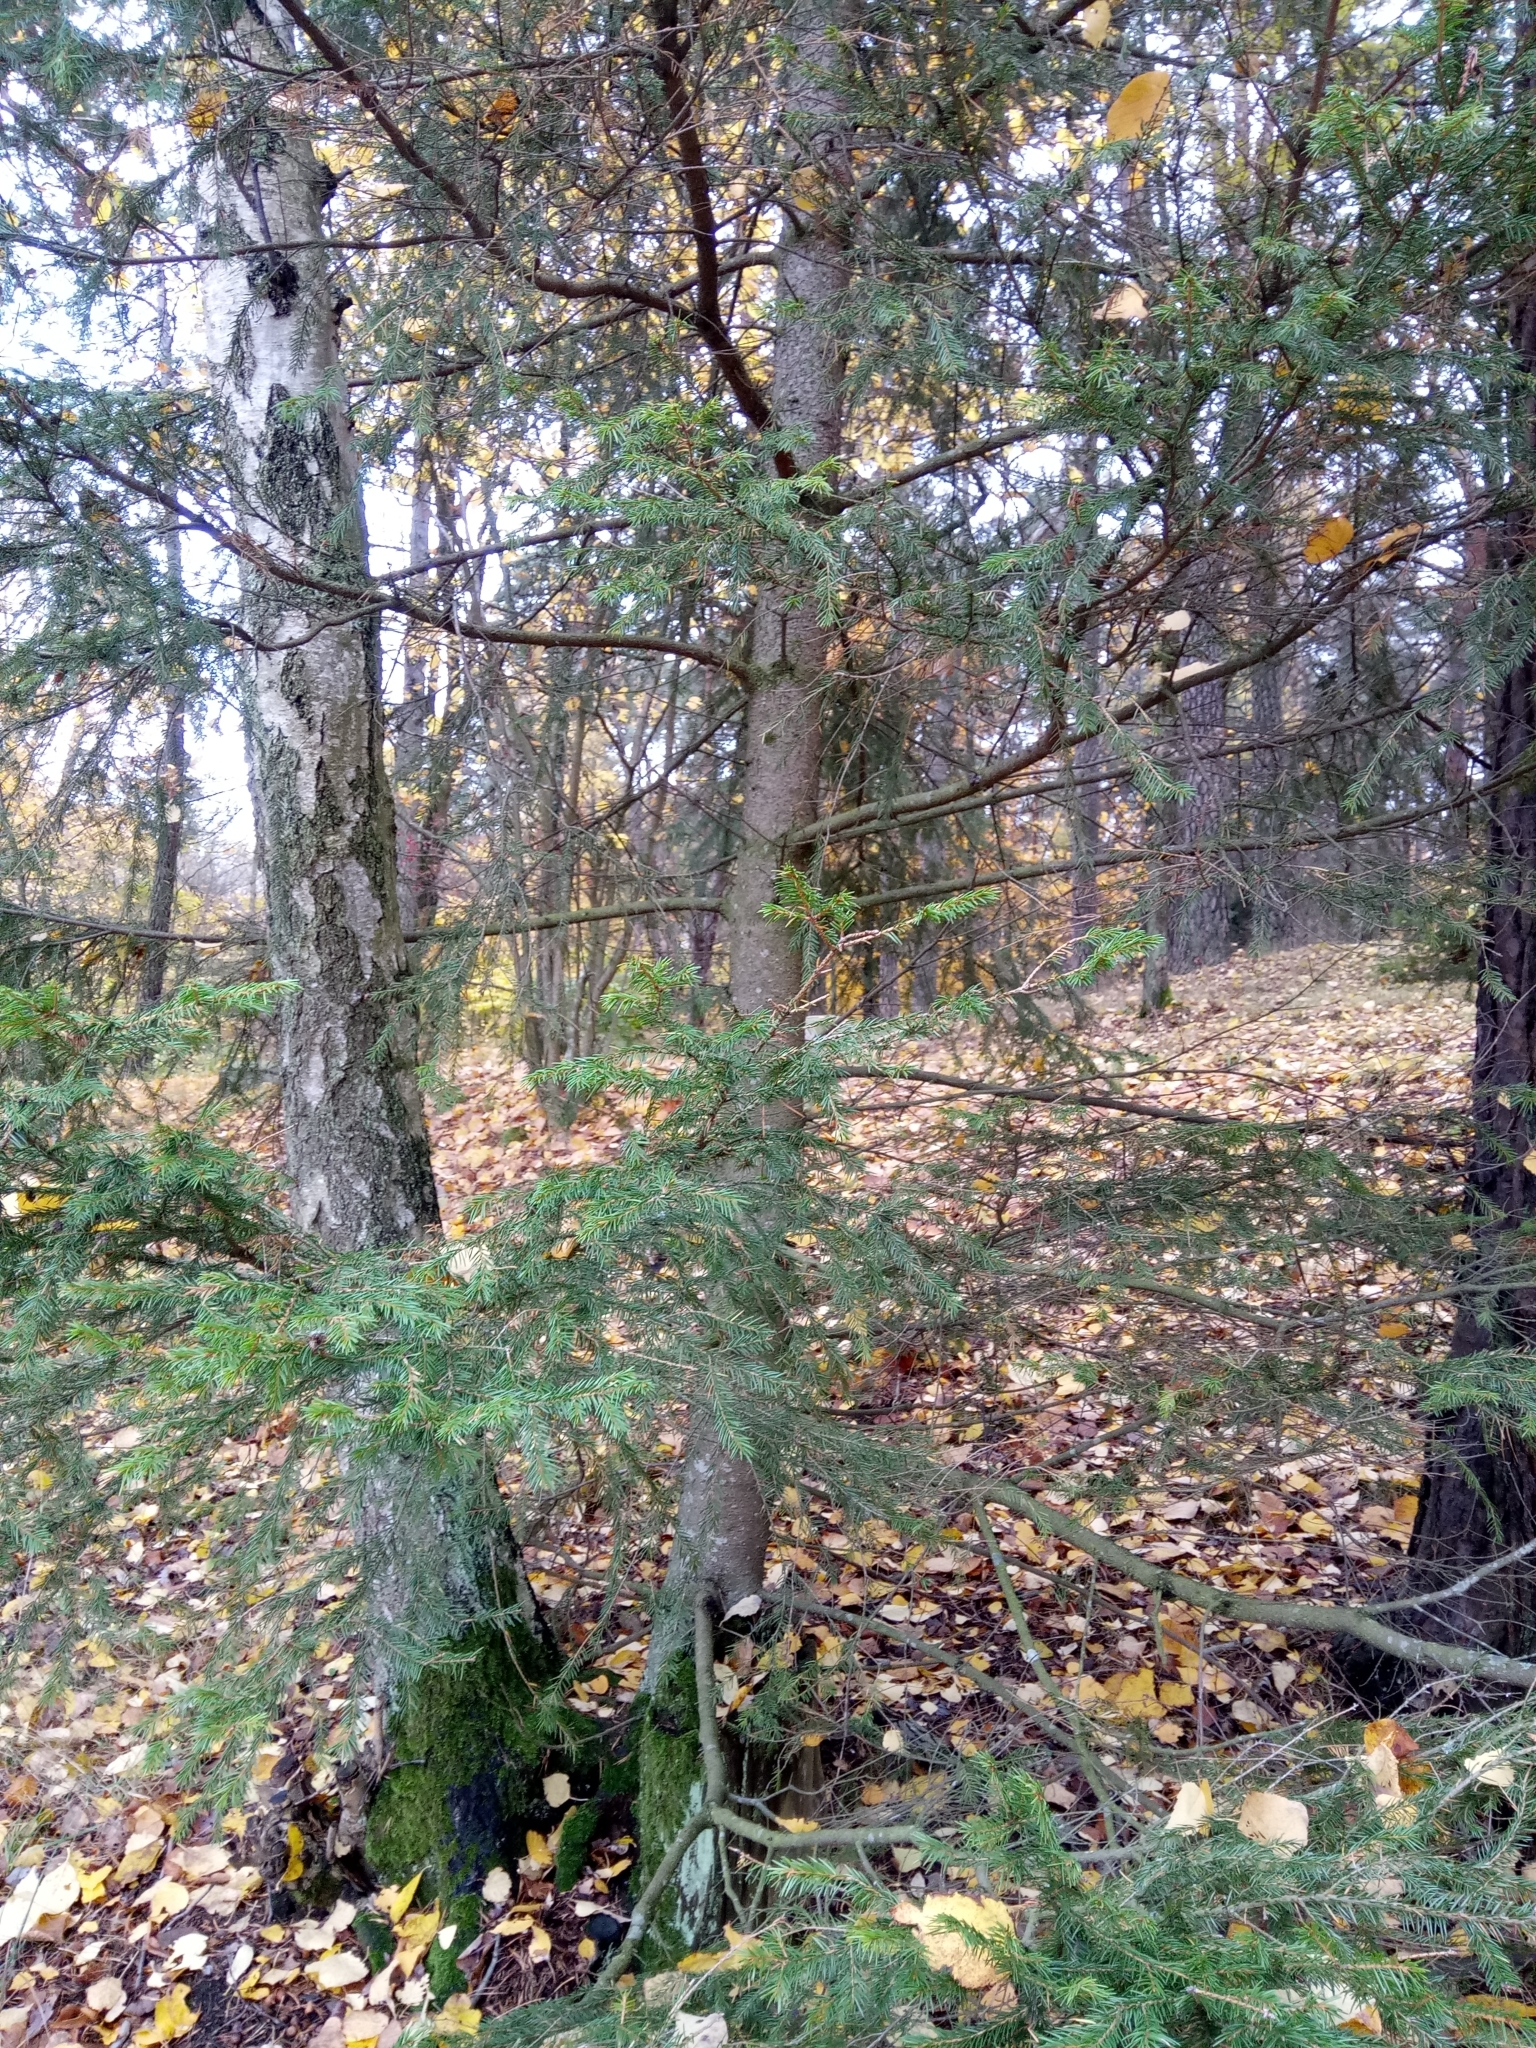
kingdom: Plantae
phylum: Tracheophyta
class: Pinopsida
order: Pinales
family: Pinaceae
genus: Picea
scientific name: Picea abies
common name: Norway spruce
